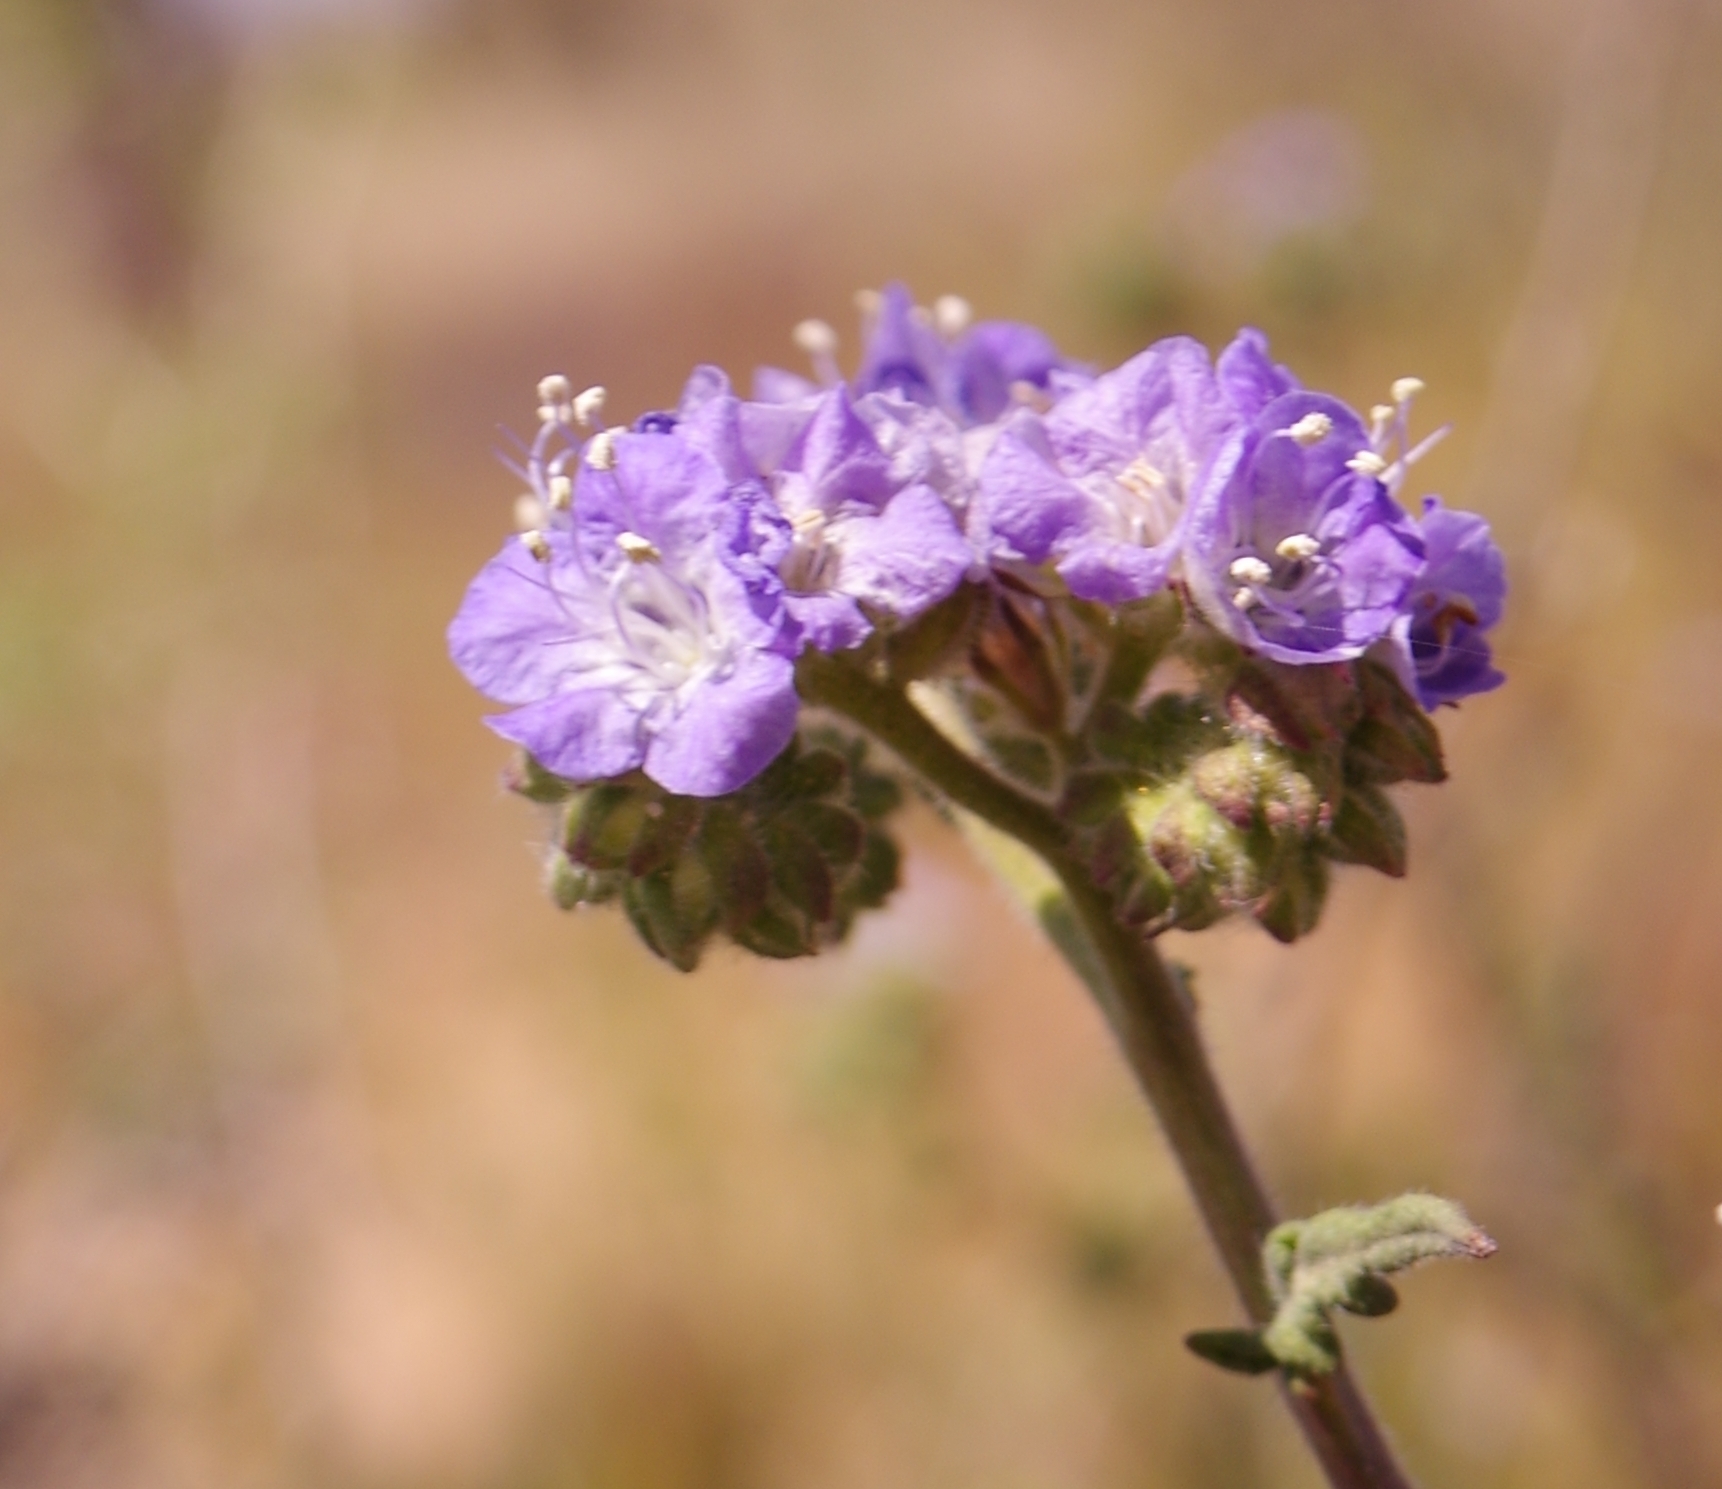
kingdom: Plantae
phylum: Tracheophyta
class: Magnoliopsida
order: Boraginales
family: Hydrophyllaceae
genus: Phacelia
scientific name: Phacelia distans
